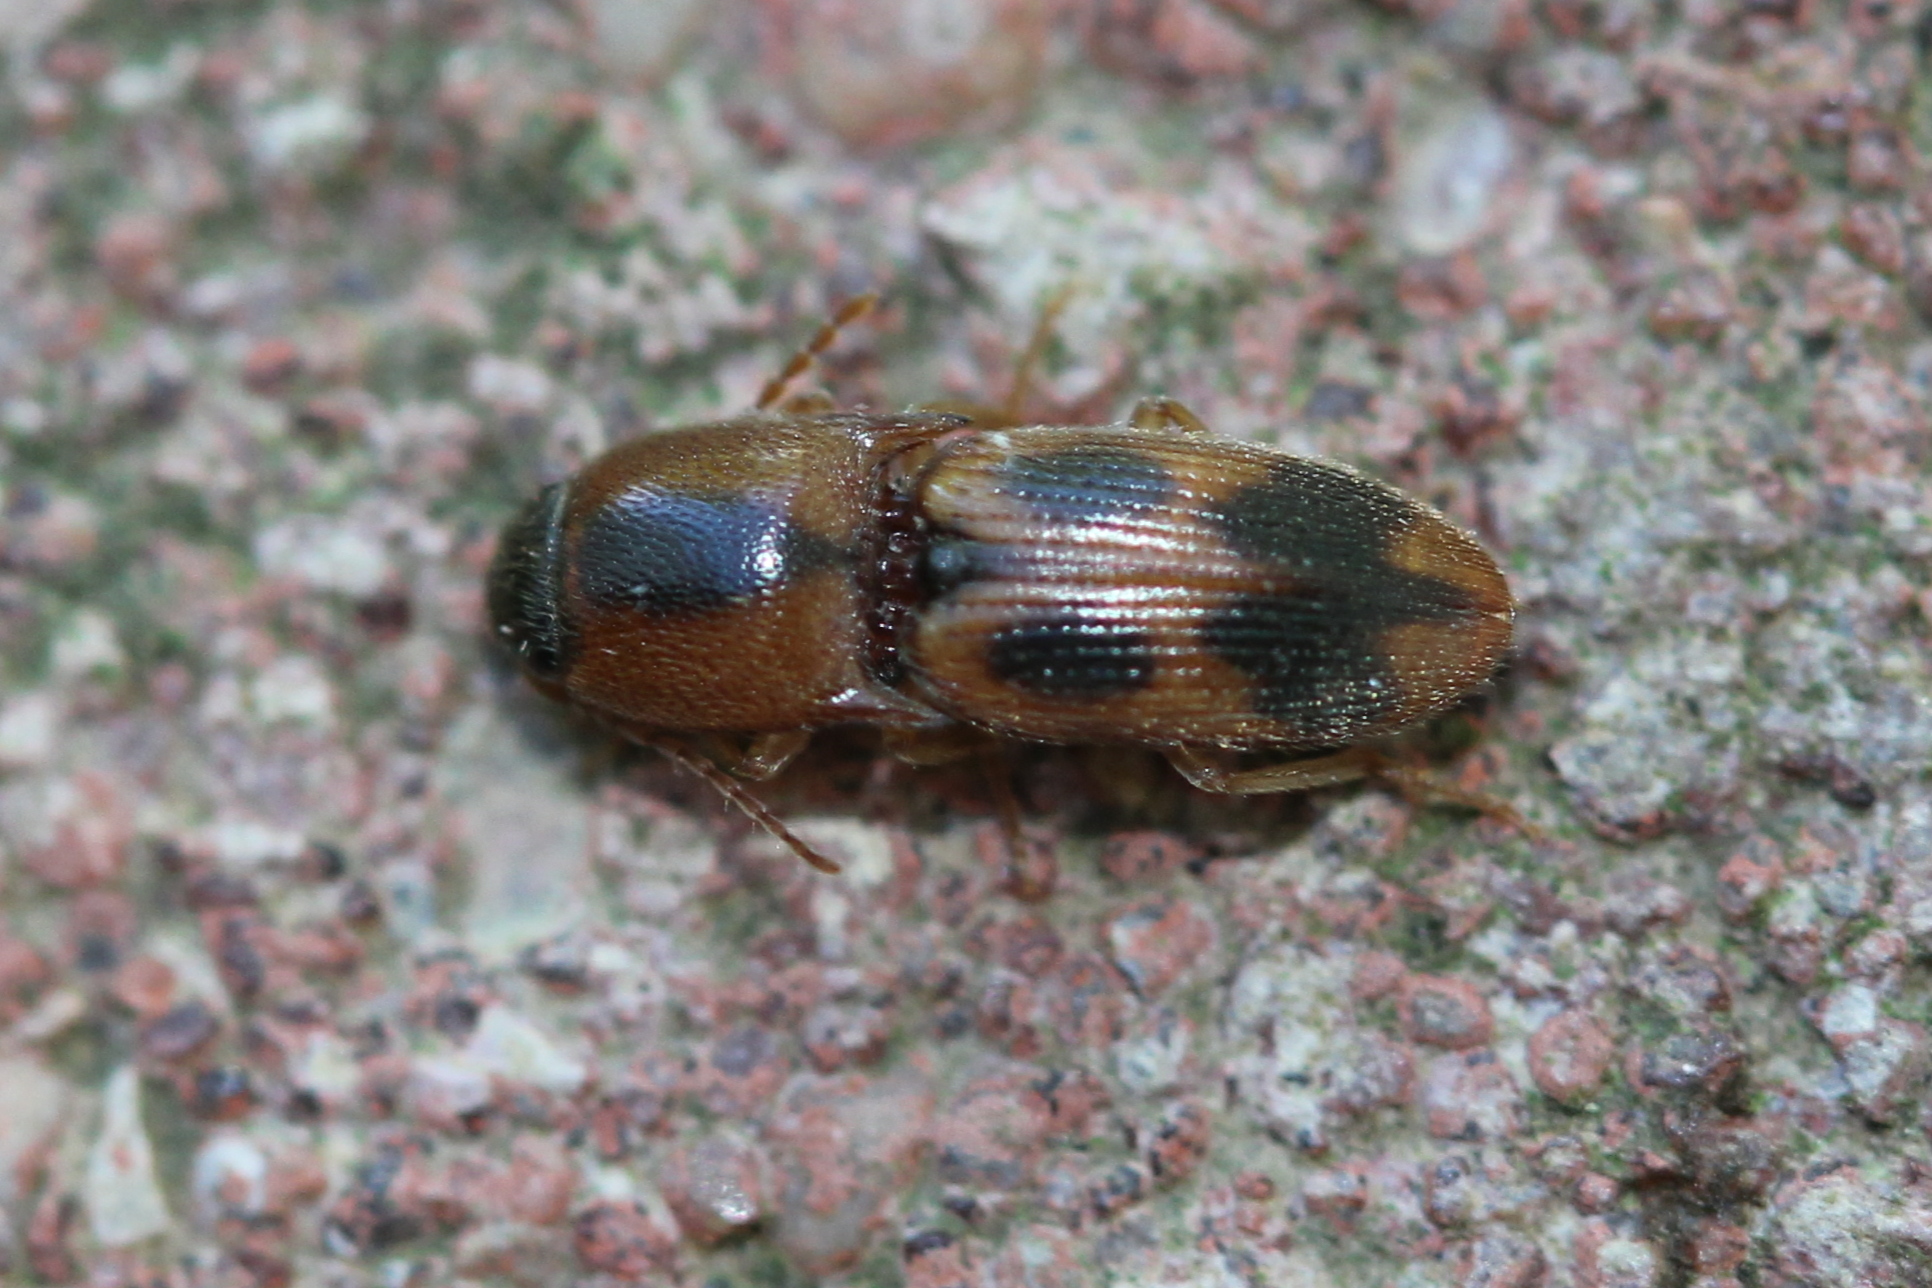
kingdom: Animalia
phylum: Arthropoda
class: Insecta
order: Coleoptera
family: Elateridae
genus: Aeolus
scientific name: Aeolus mellillus
